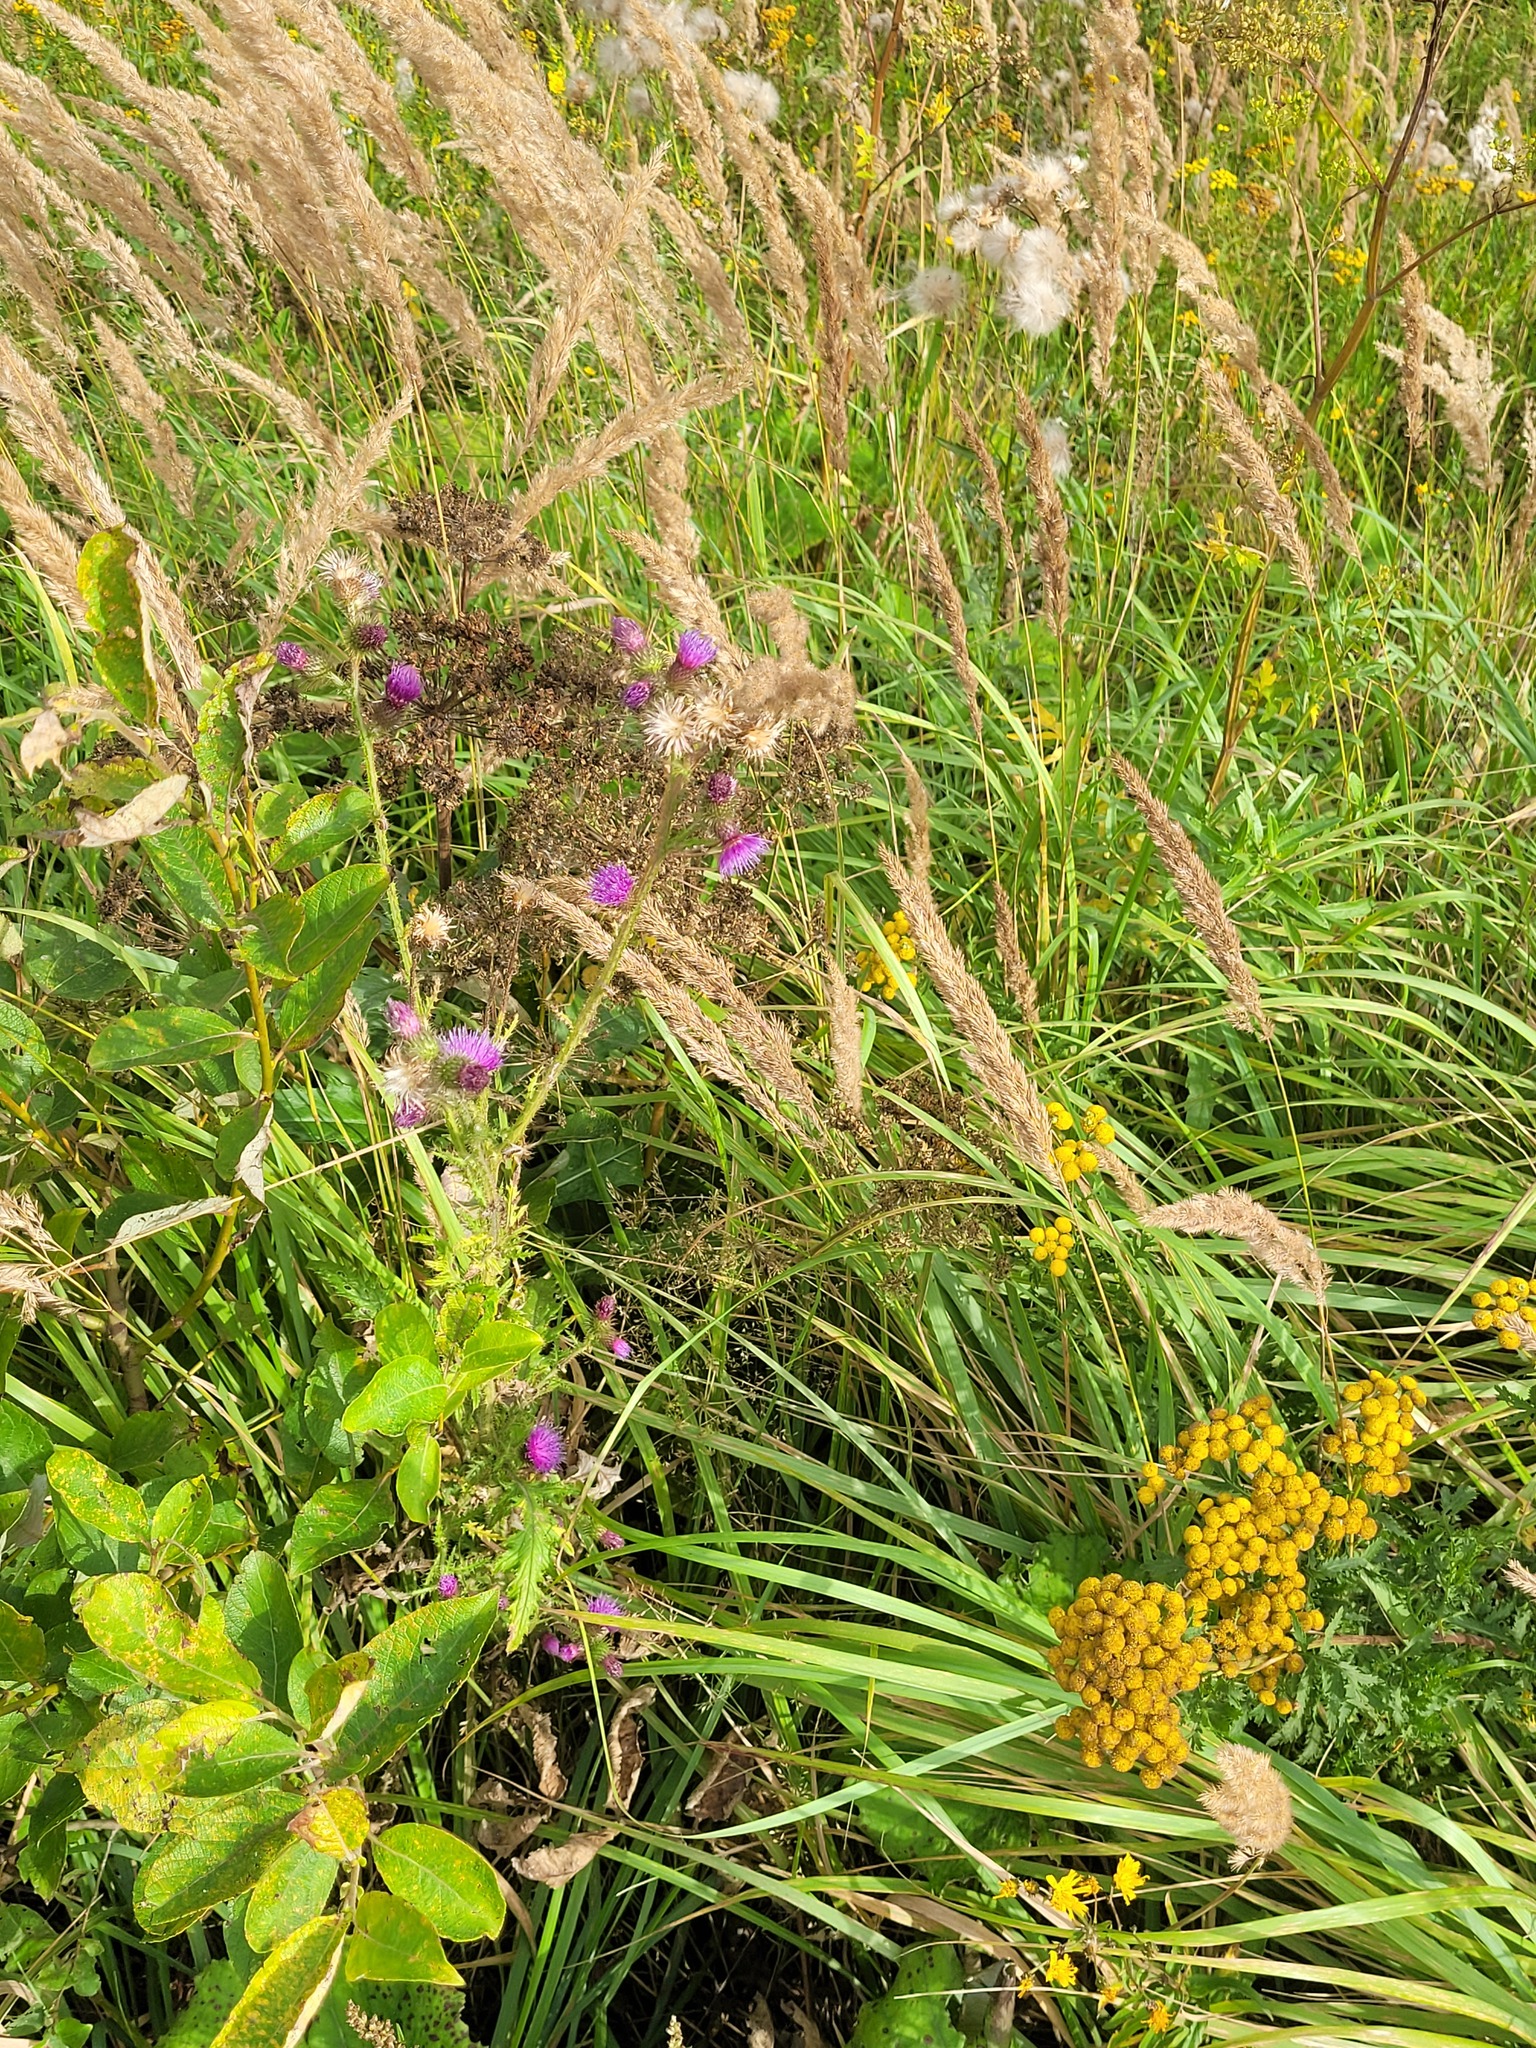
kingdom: Plantae
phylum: Tracheophyta
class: Magnoliopsida
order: Asterales
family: Asteraceae
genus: Carduus
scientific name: Carduus crispus
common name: Welted thistle
